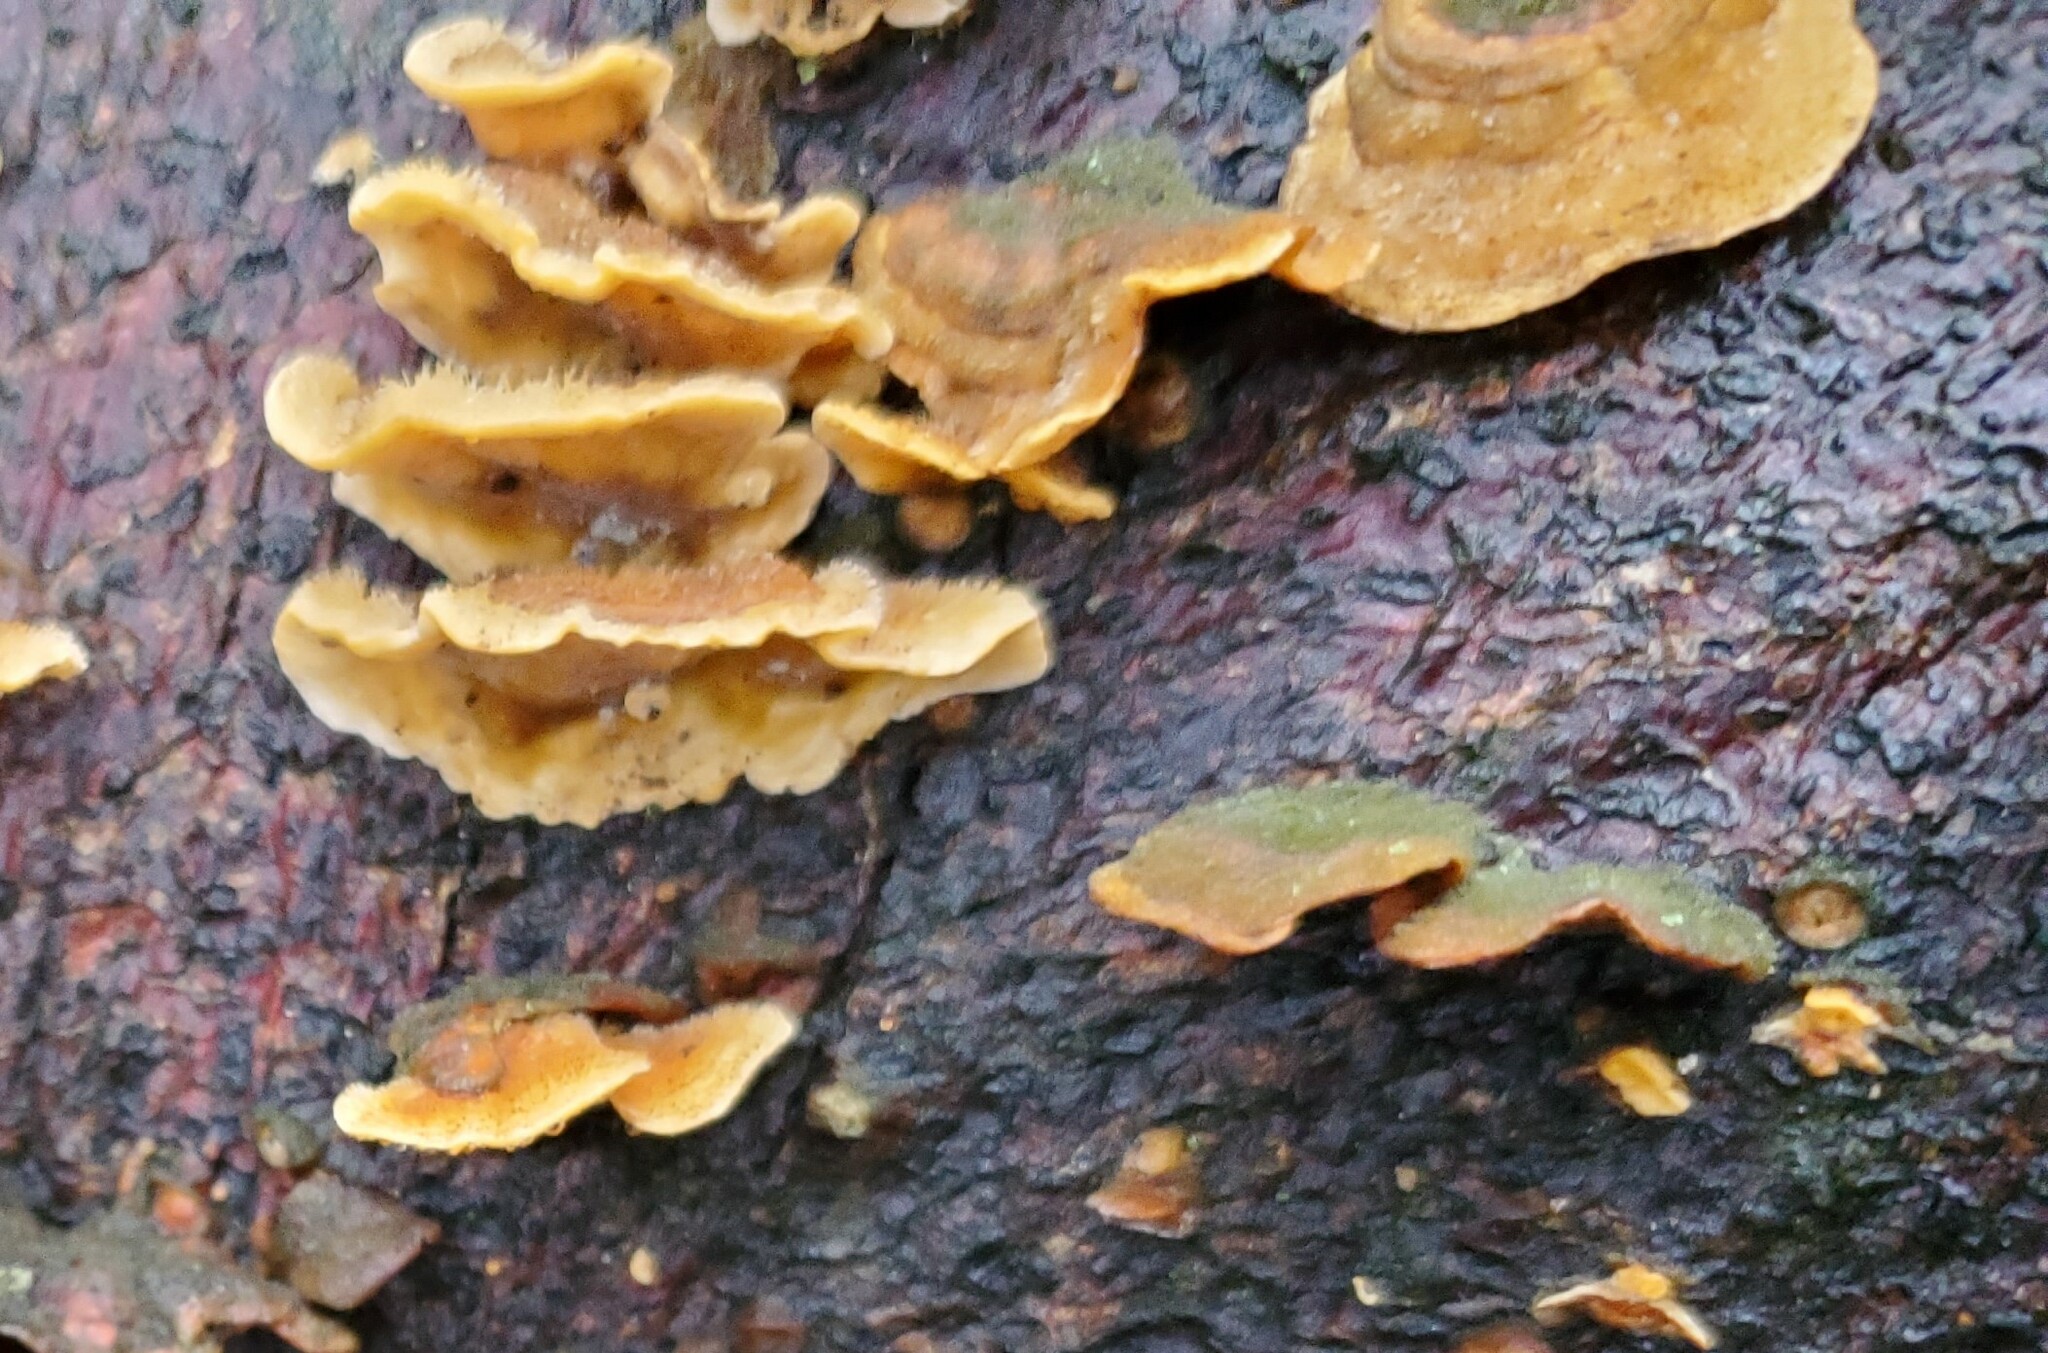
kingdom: Fungi
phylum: Basidiomycota
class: Agaricomycetes
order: Russulales
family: Stereaceae
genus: Stereum
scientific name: Stereum hirsutum
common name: Hairy curtain crust
